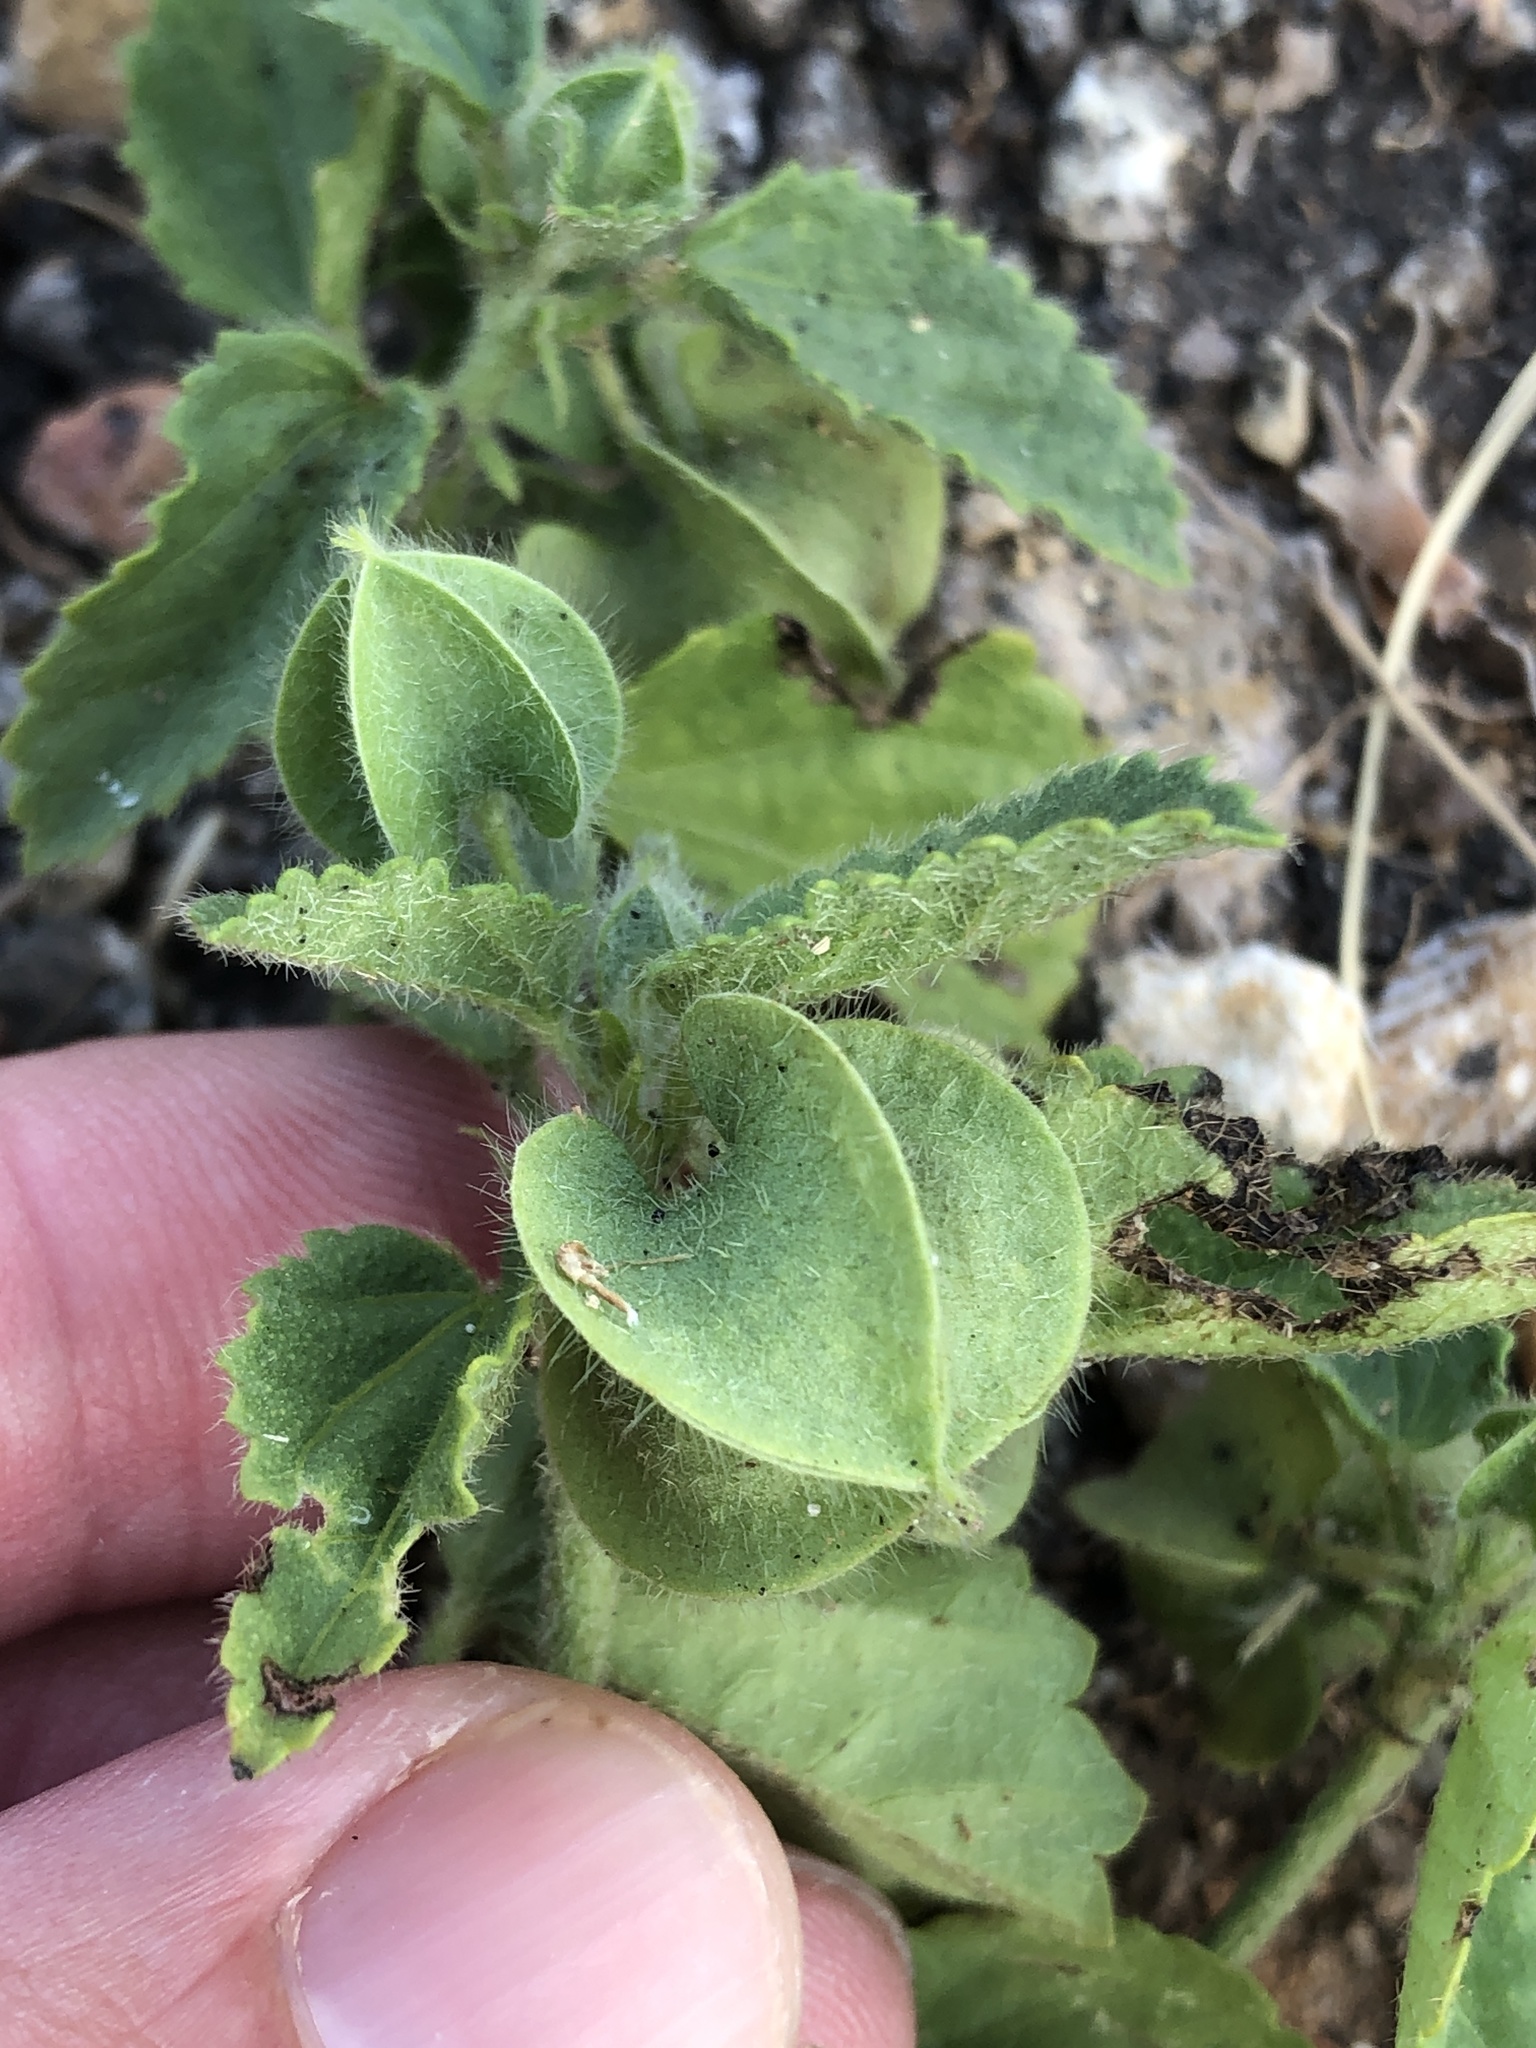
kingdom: Plantae
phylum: Tracheophyta
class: Magnoliopsida
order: Malvales
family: Malvaceae
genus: Rhynchosida
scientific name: Rhynchosida physocalyx
